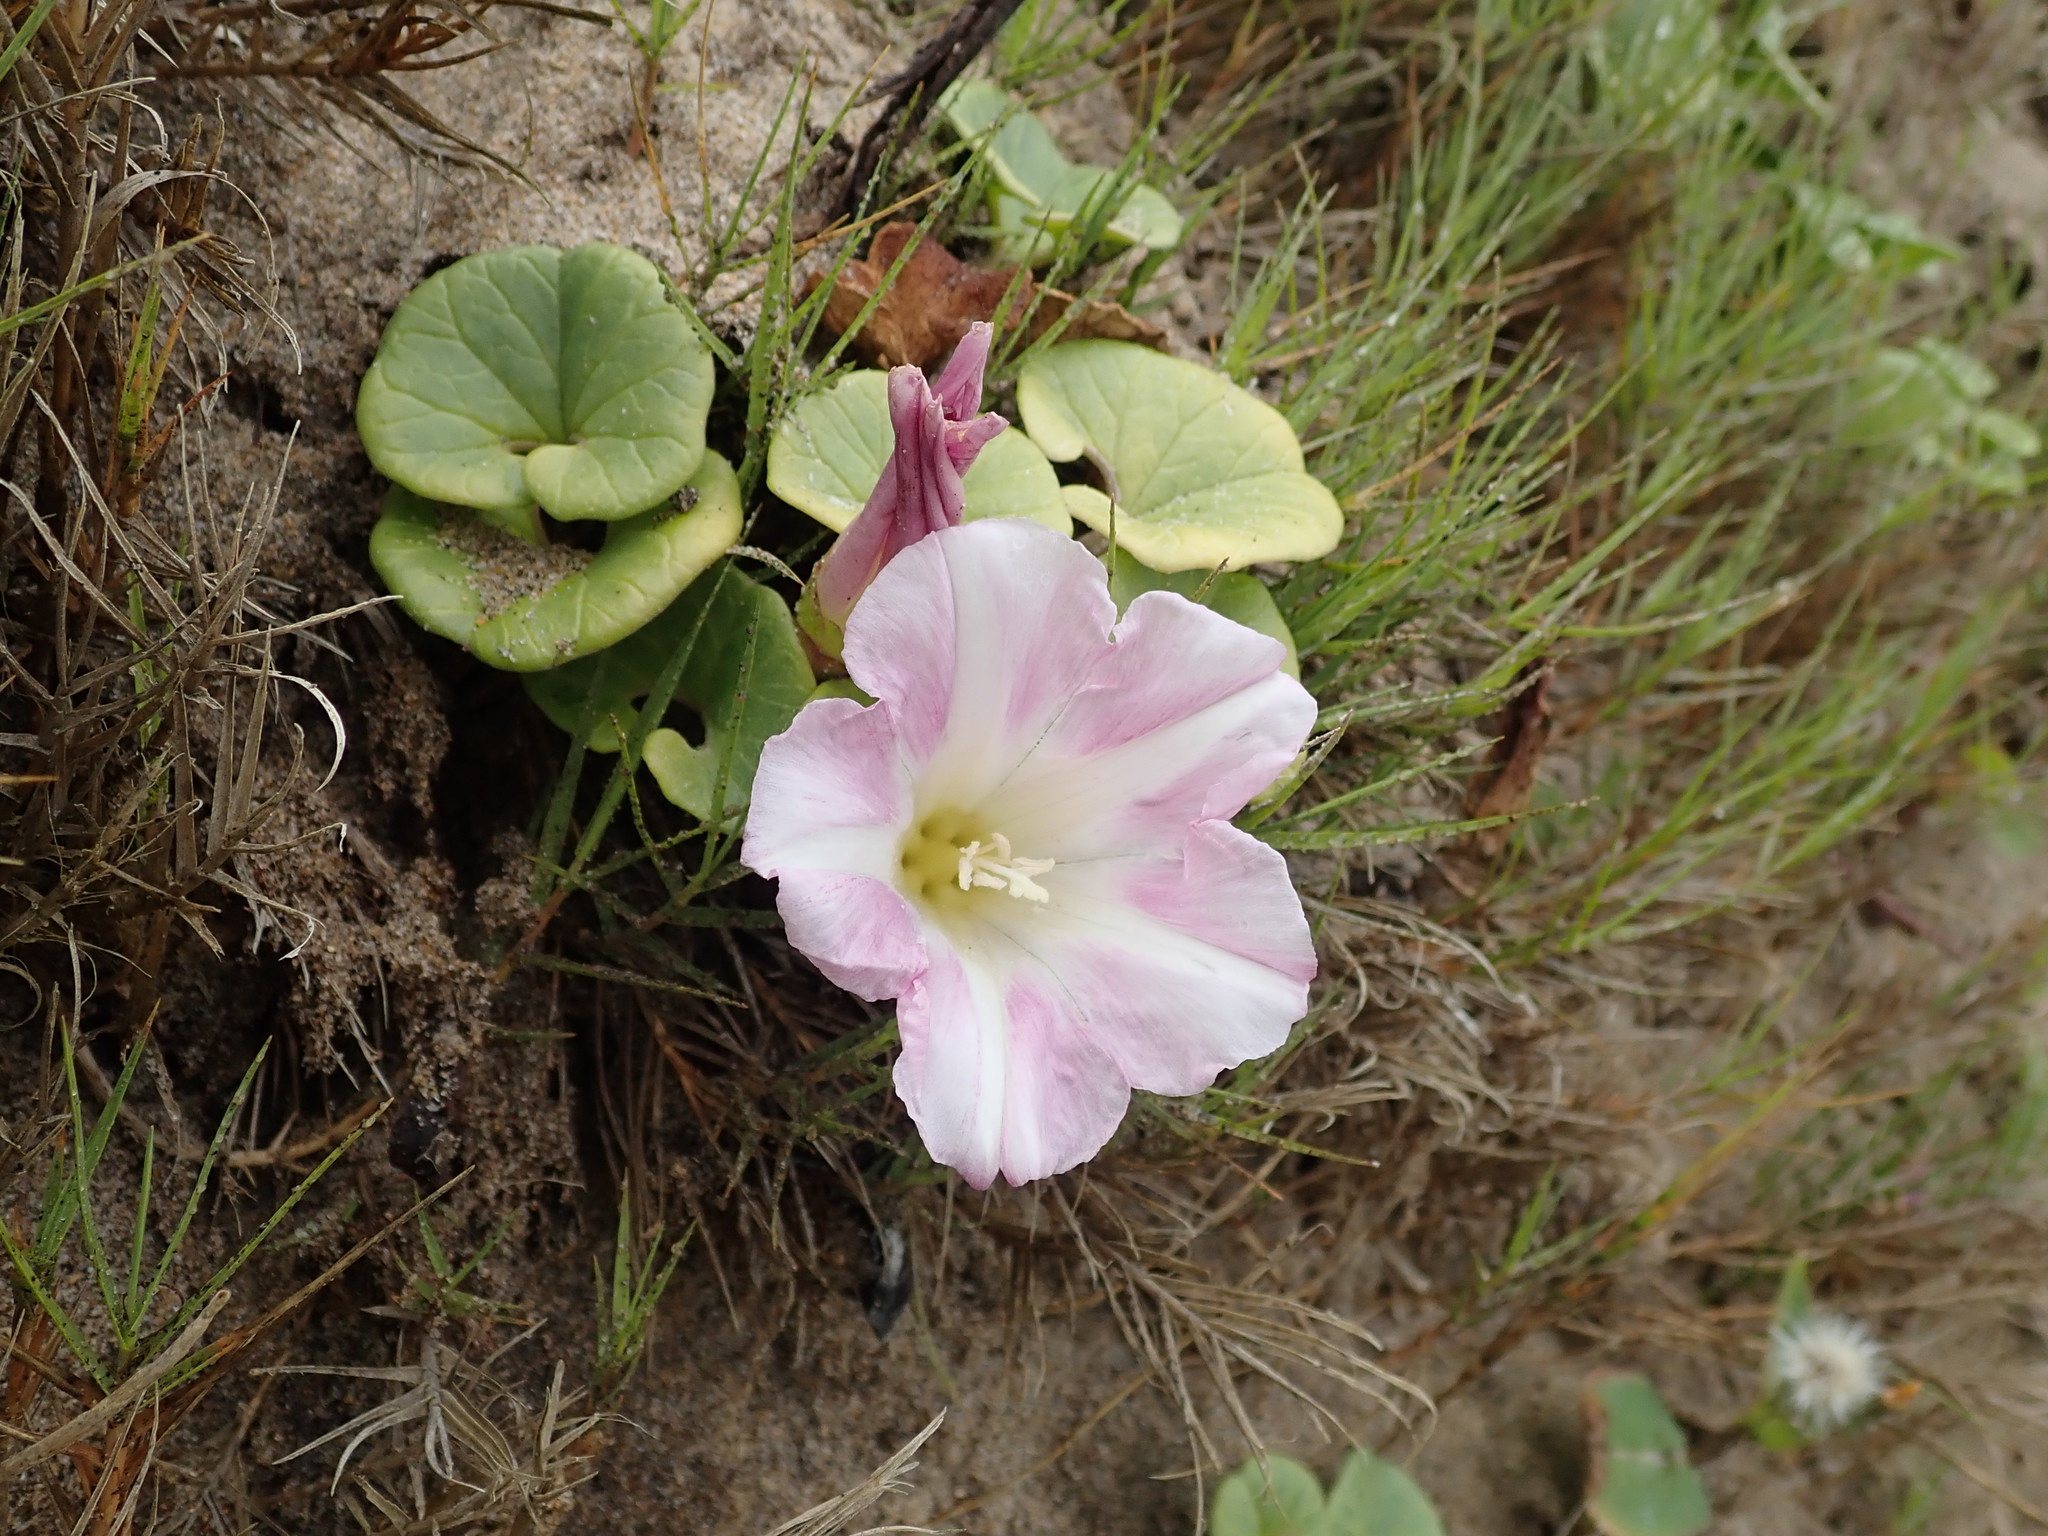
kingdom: Plantae
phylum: Tracheophyta
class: Magnoliopsida
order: Solanales
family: Convolvulaceae
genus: Calystegia
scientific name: Calystegia soldanella
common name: Sea bindweed
